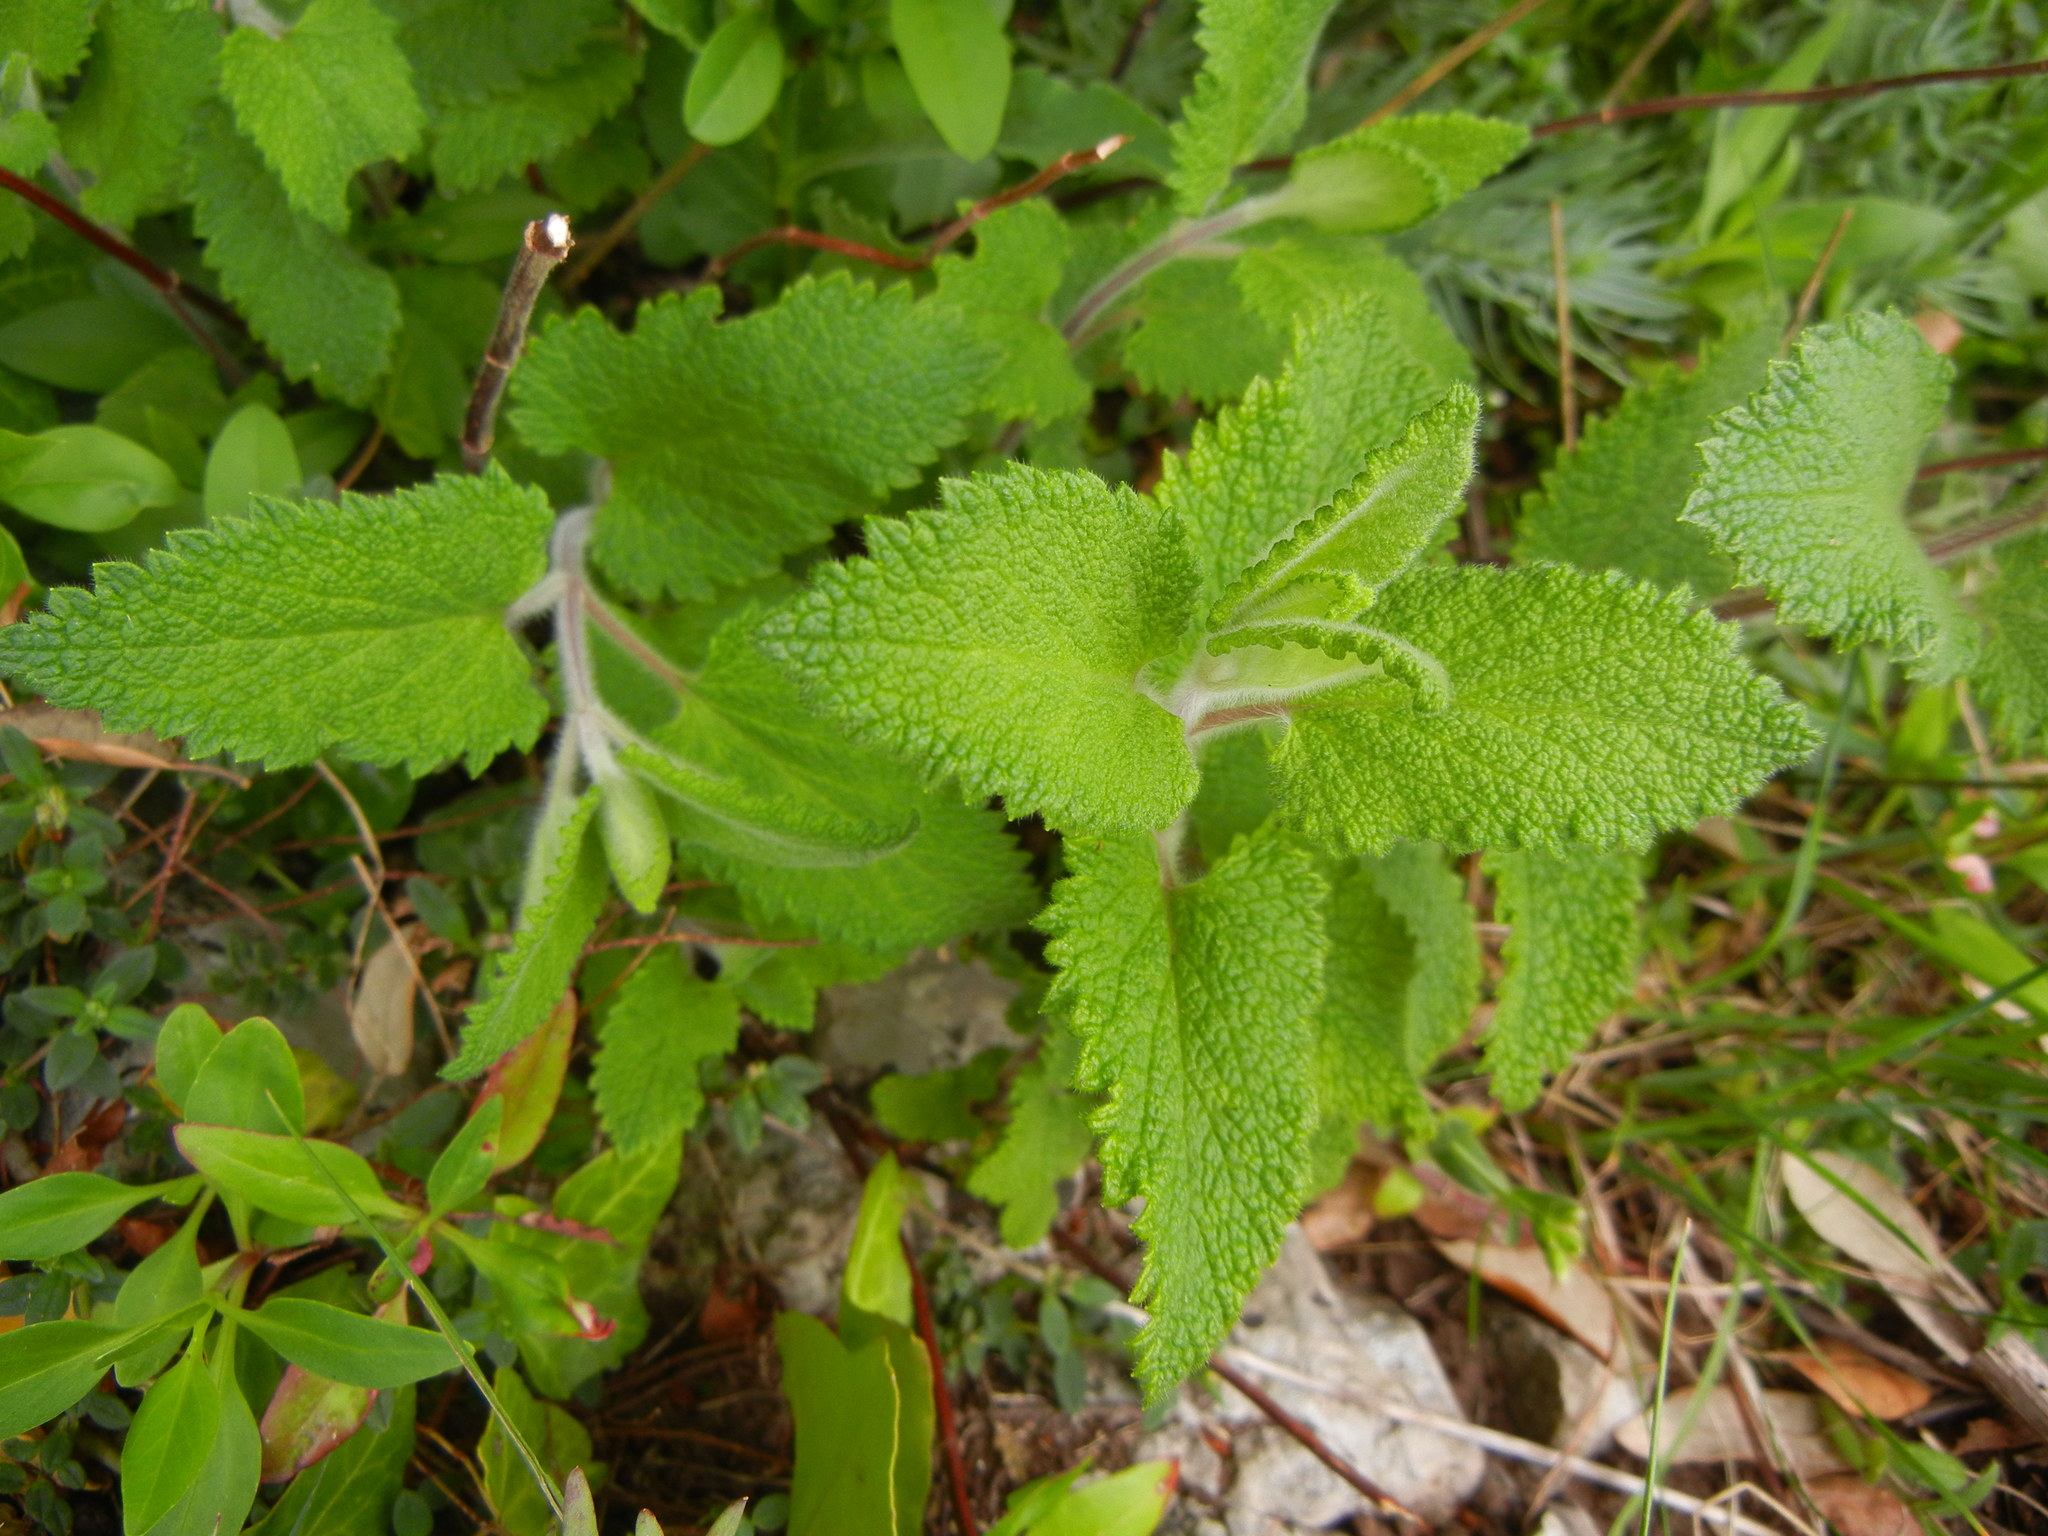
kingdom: Plantae
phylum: Tracheophyta
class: Magnoliopsida
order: Lamiales
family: Lamiaceae
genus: Teucrium
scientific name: Teucrium scorodonia
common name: Woodland germander
